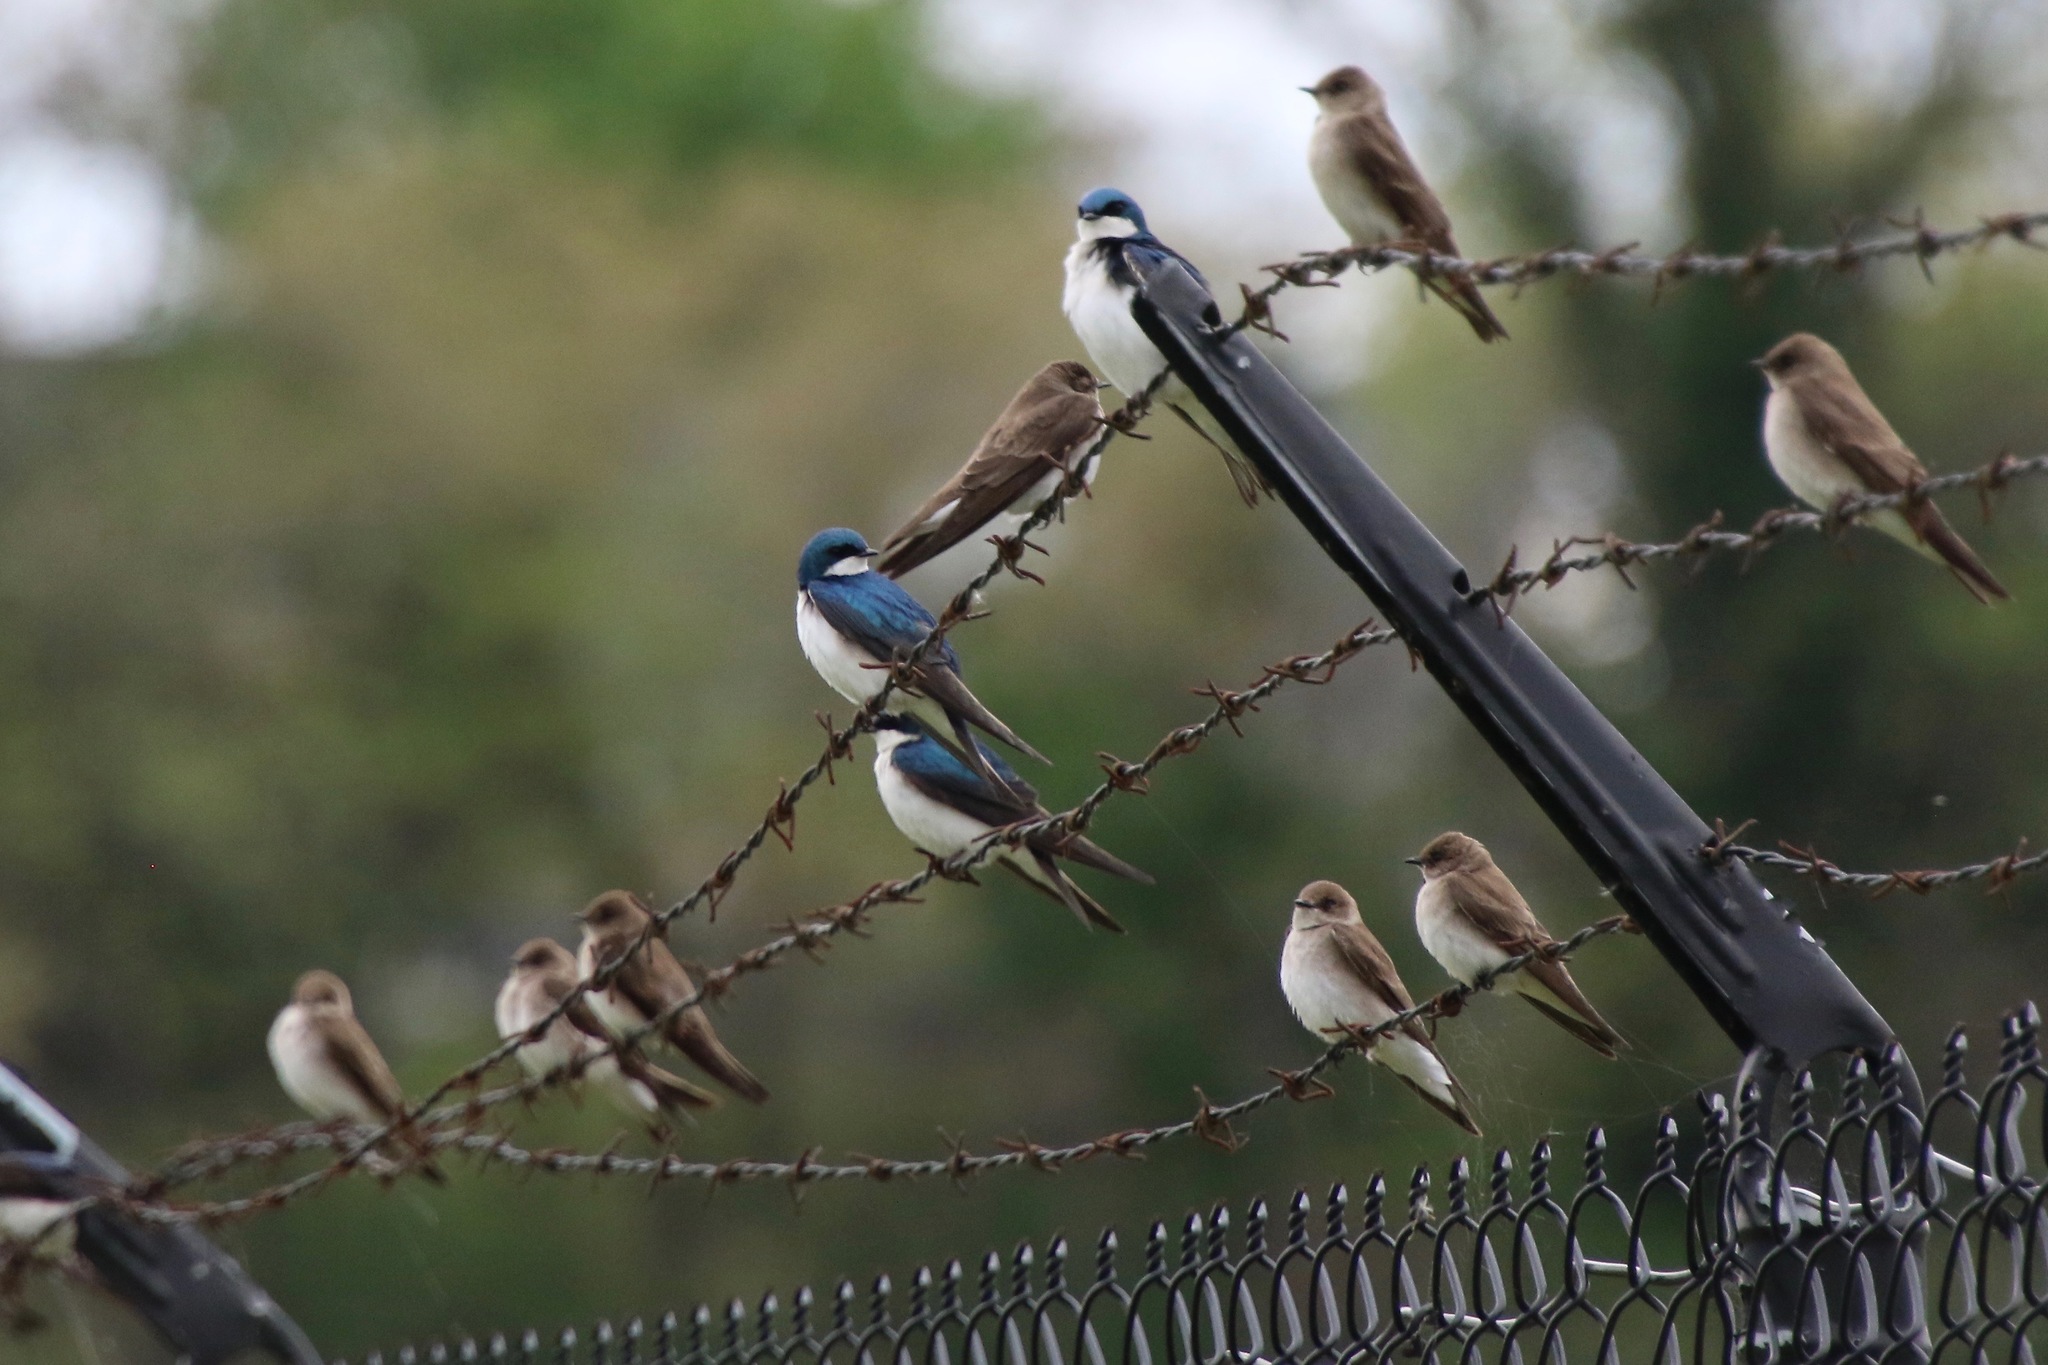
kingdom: Animalia
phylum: Chordata
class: Aves
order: Passeriformes
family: Hirundinidae
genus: Tachycineta
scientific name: Tachycineta bicolor
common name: Tree swallow
